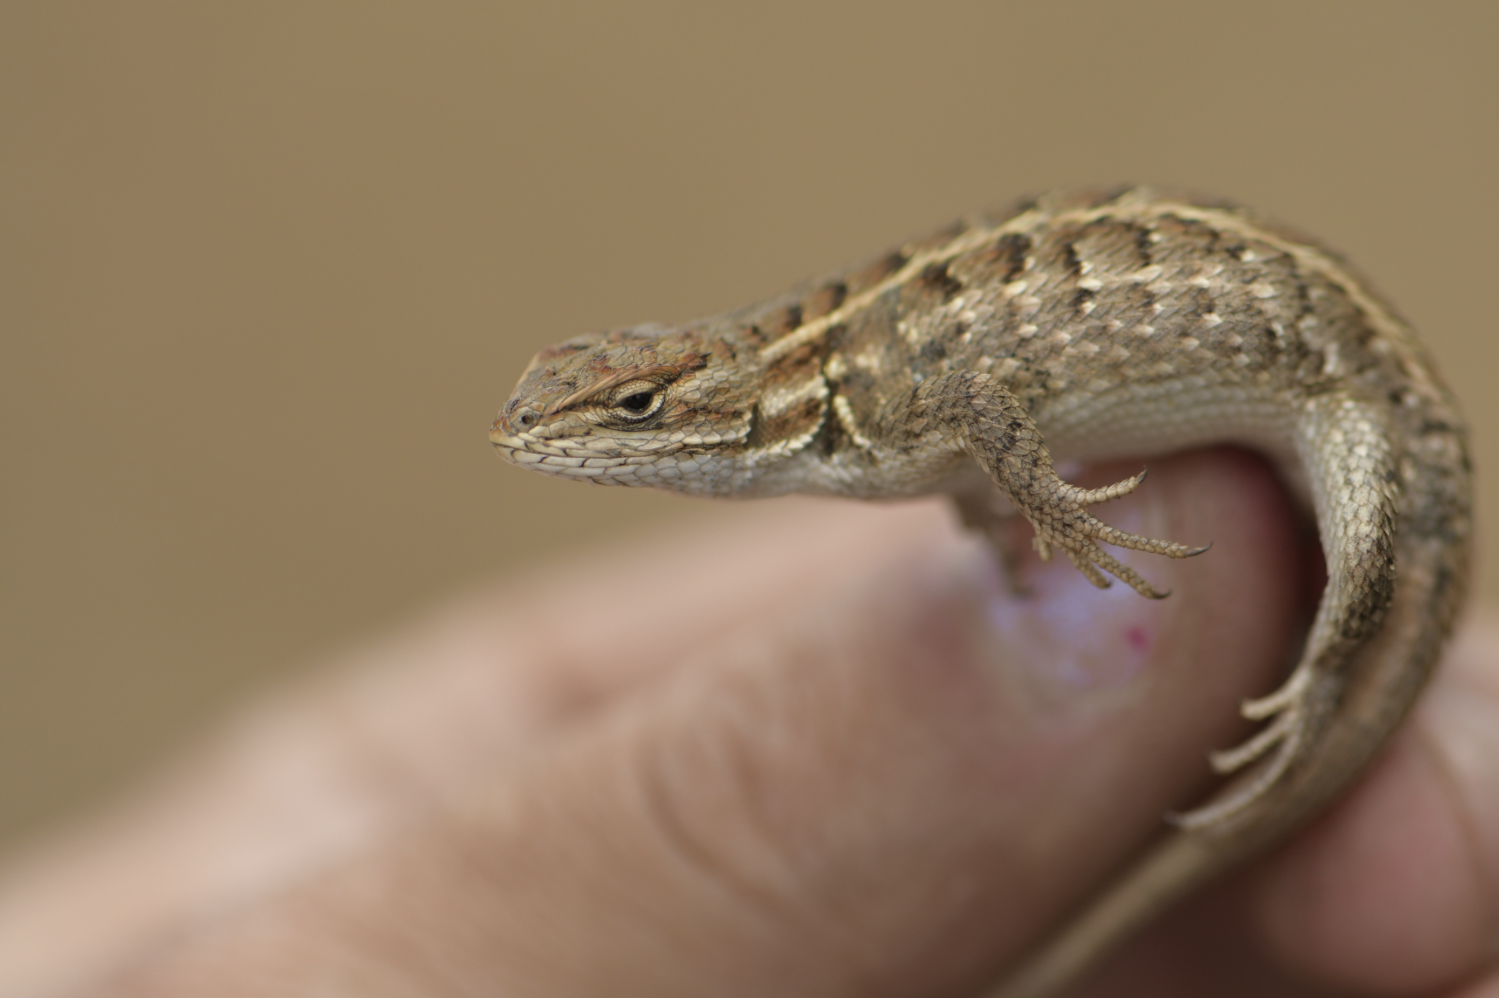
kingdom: Animalia
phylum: Chordata
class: Squamata
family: Phrynosomatidae
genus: Sceloporus
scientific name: Sceloporus scalaris
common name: Brown’s bunchgrass lizard [brownorum]
